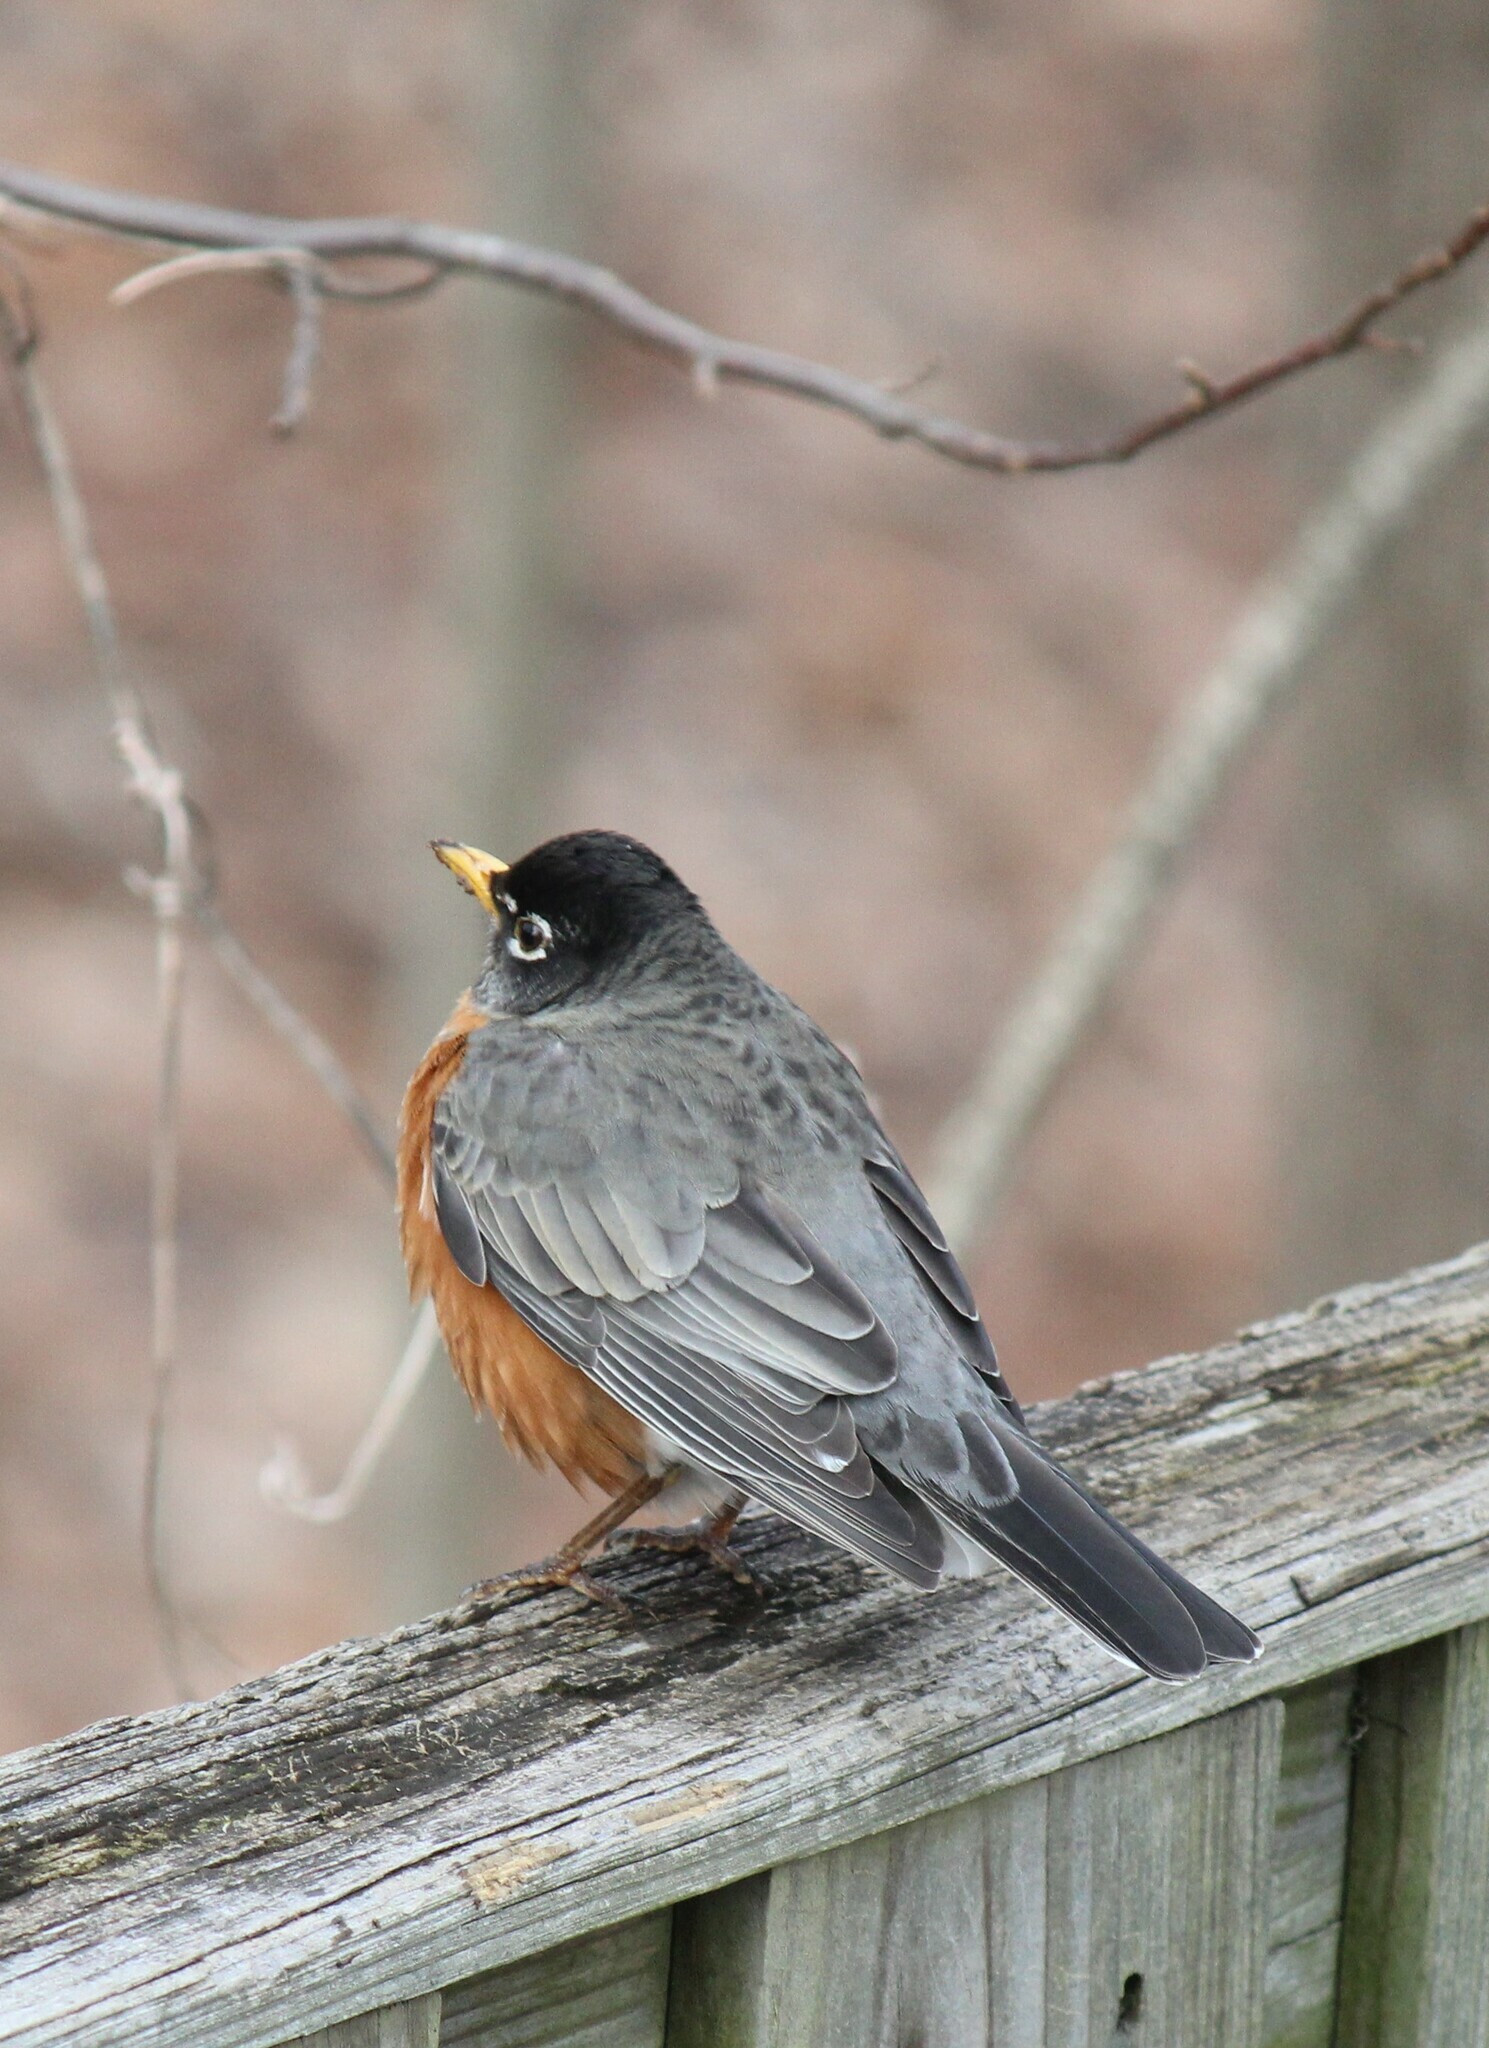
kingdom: Animalia
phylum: Chordata
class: Aves
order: Passeriformes
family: Turdidae
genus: Turdus
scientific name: Turdus migratorius
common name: American robin
